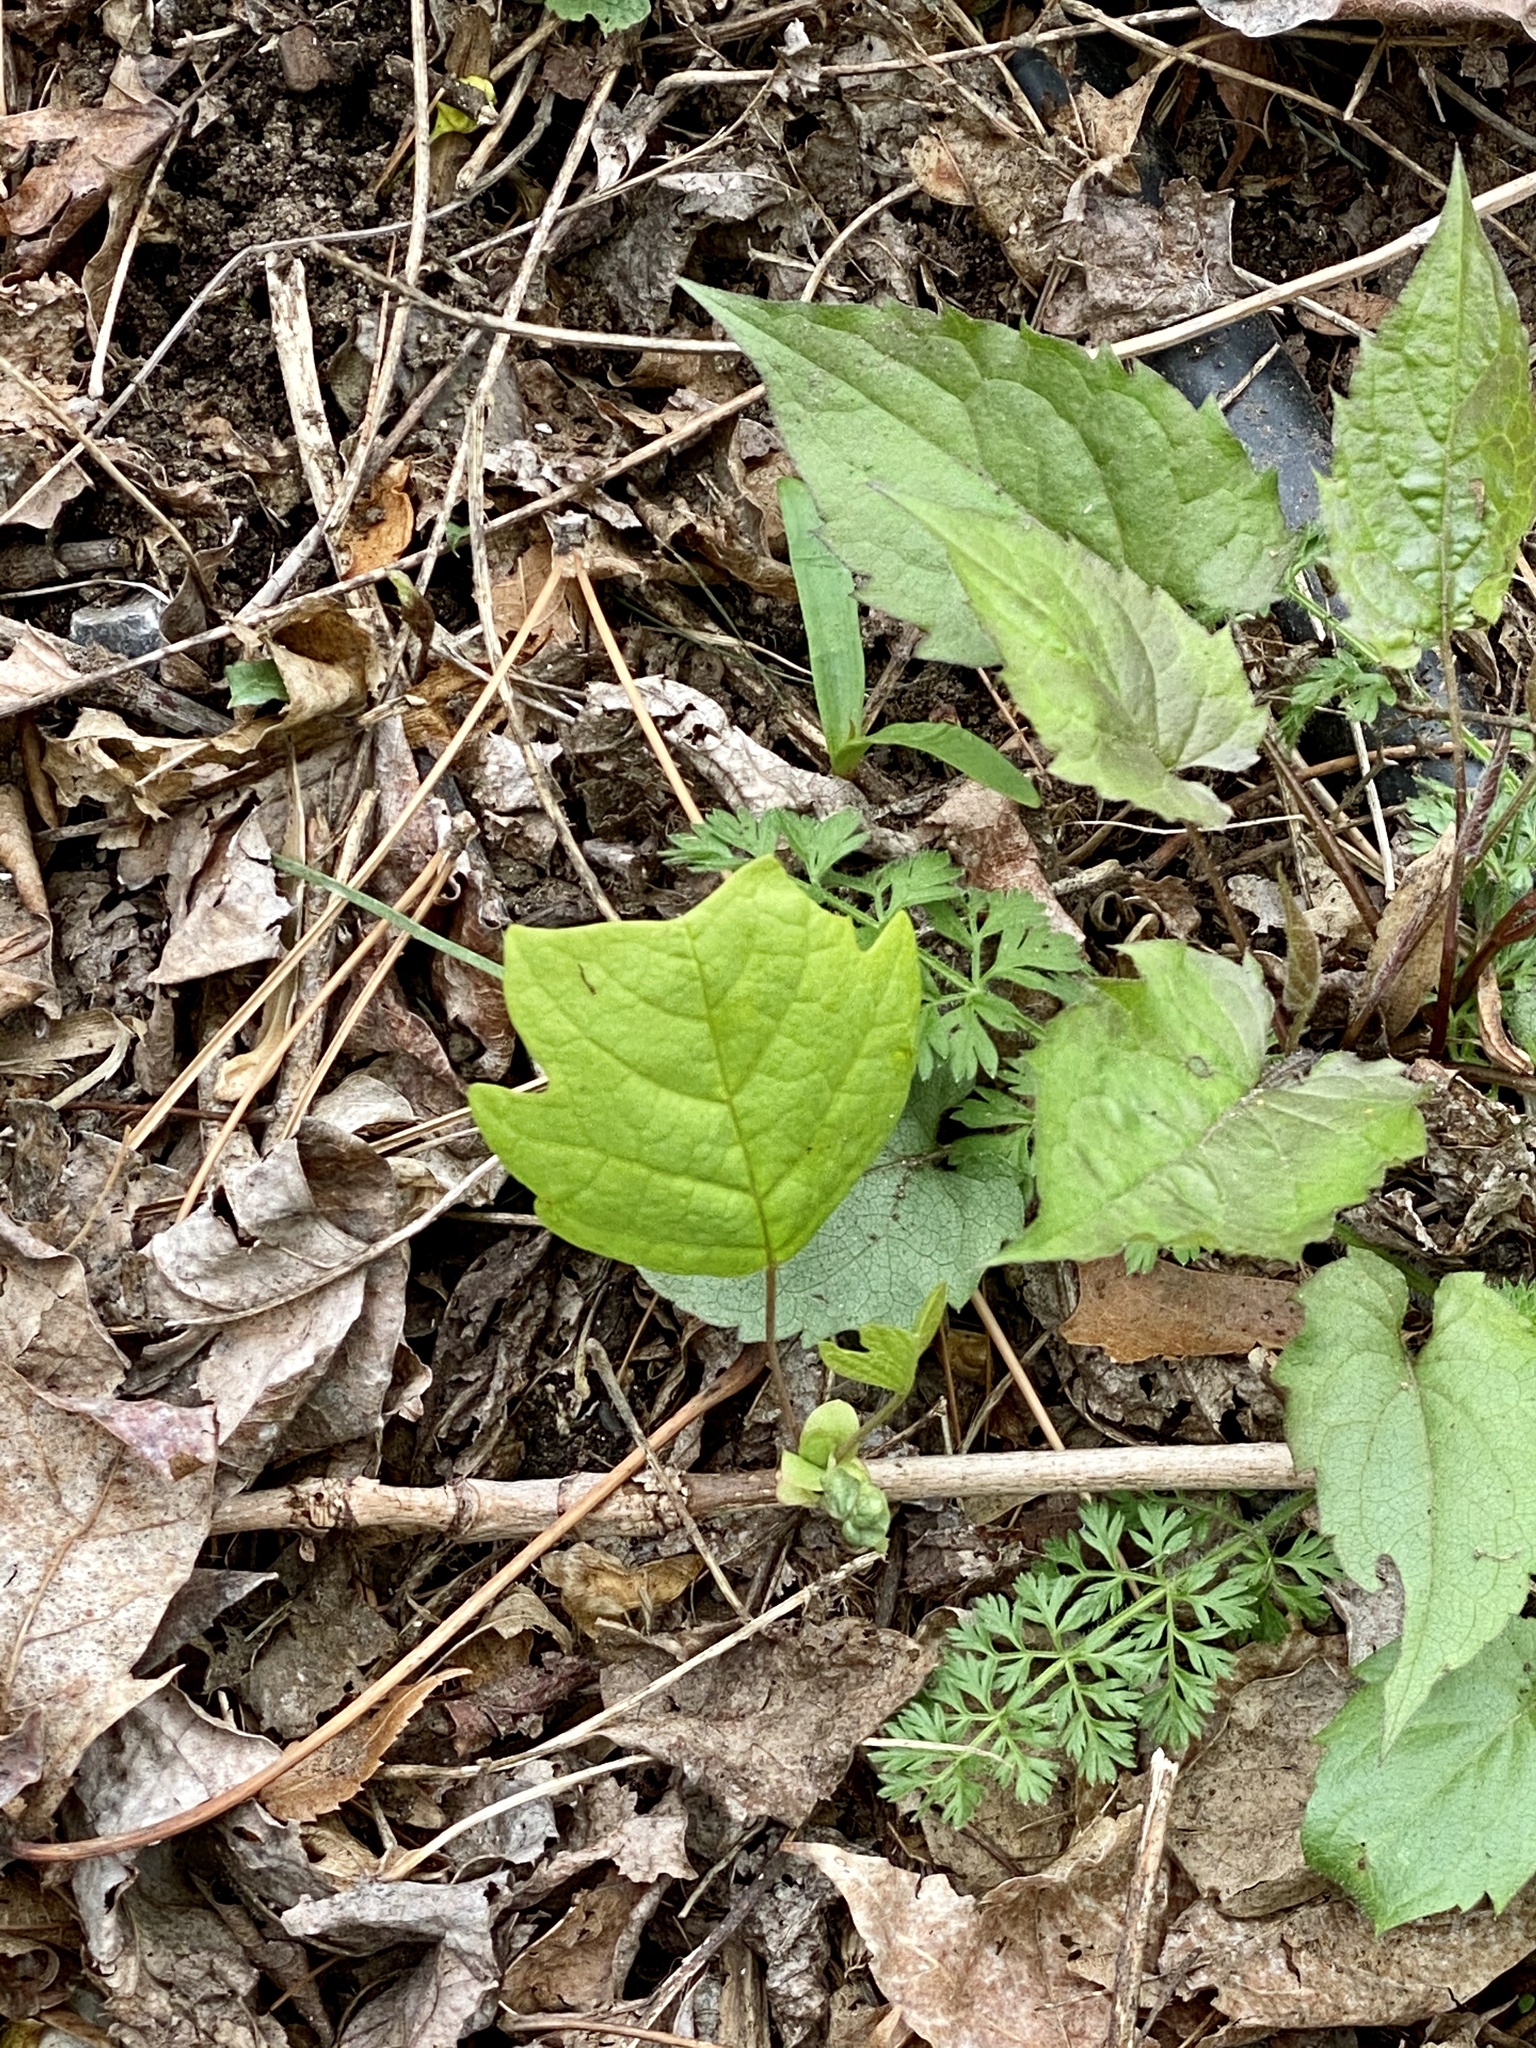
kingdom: Plantae
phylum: Tracheophyta
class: Magnoliopsida
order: Magnoliales
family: Magnoliaceae
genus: Liriodendron
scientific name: Liriodendron tulipifera
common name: Tulip tree
